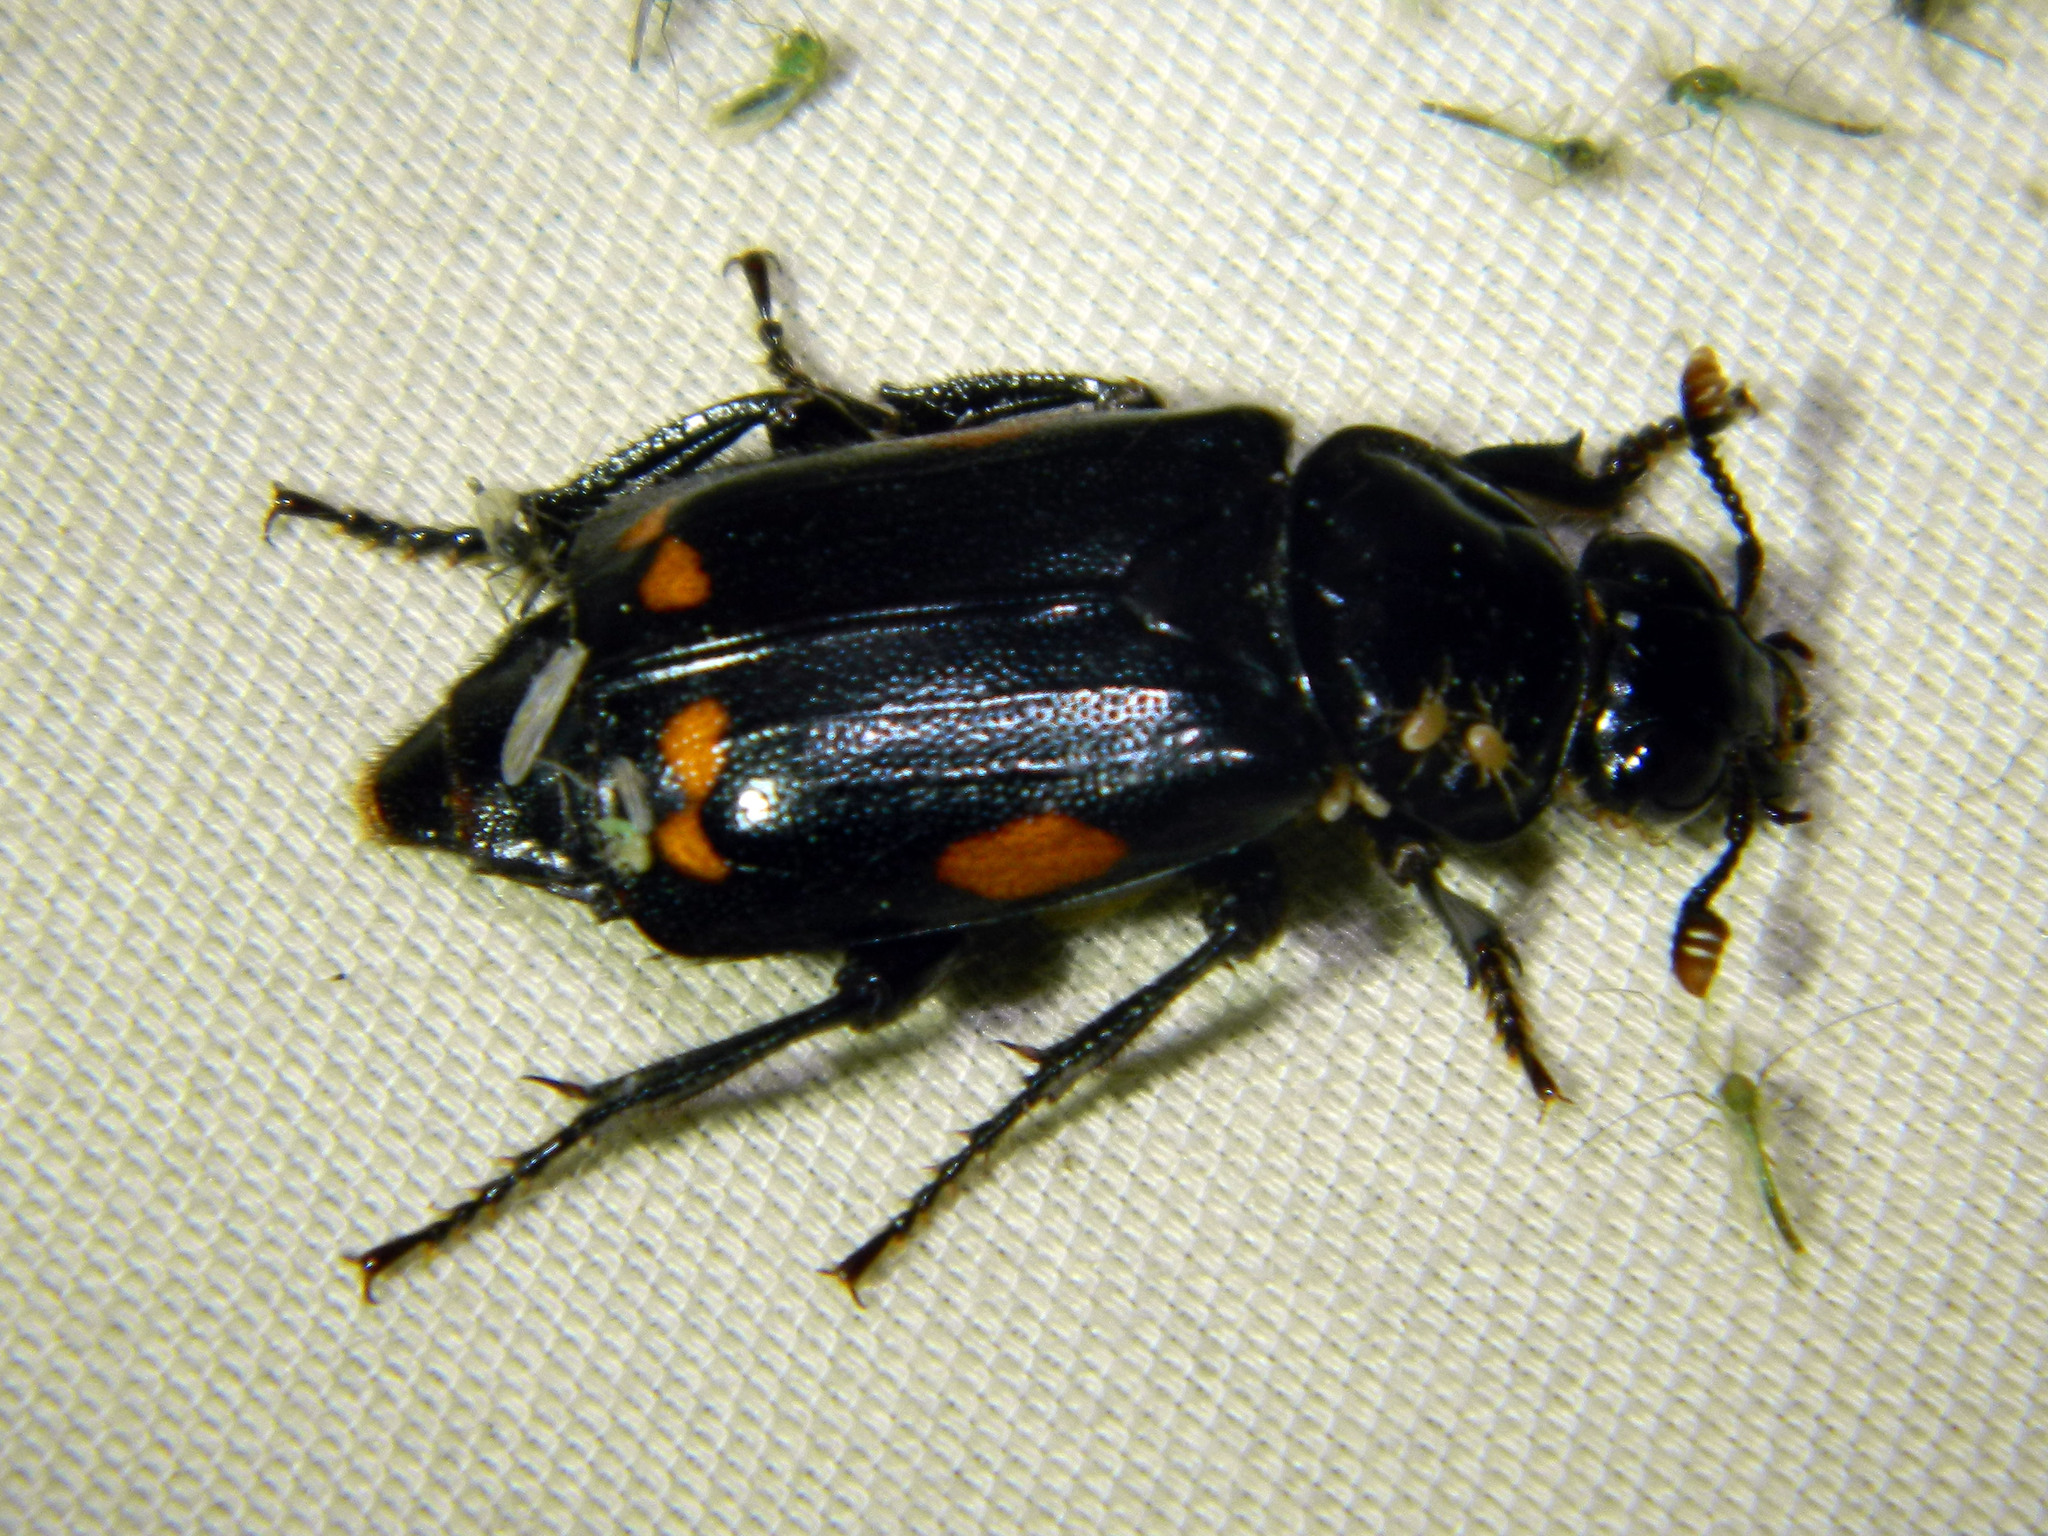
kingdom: Animalia
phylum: Arthropoda
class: Insecta
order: Coleoptera
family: Staphylinidae
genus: Nicrophorus
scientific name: Nicrophorus pustulatus
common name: Pustulated carrion beetle
